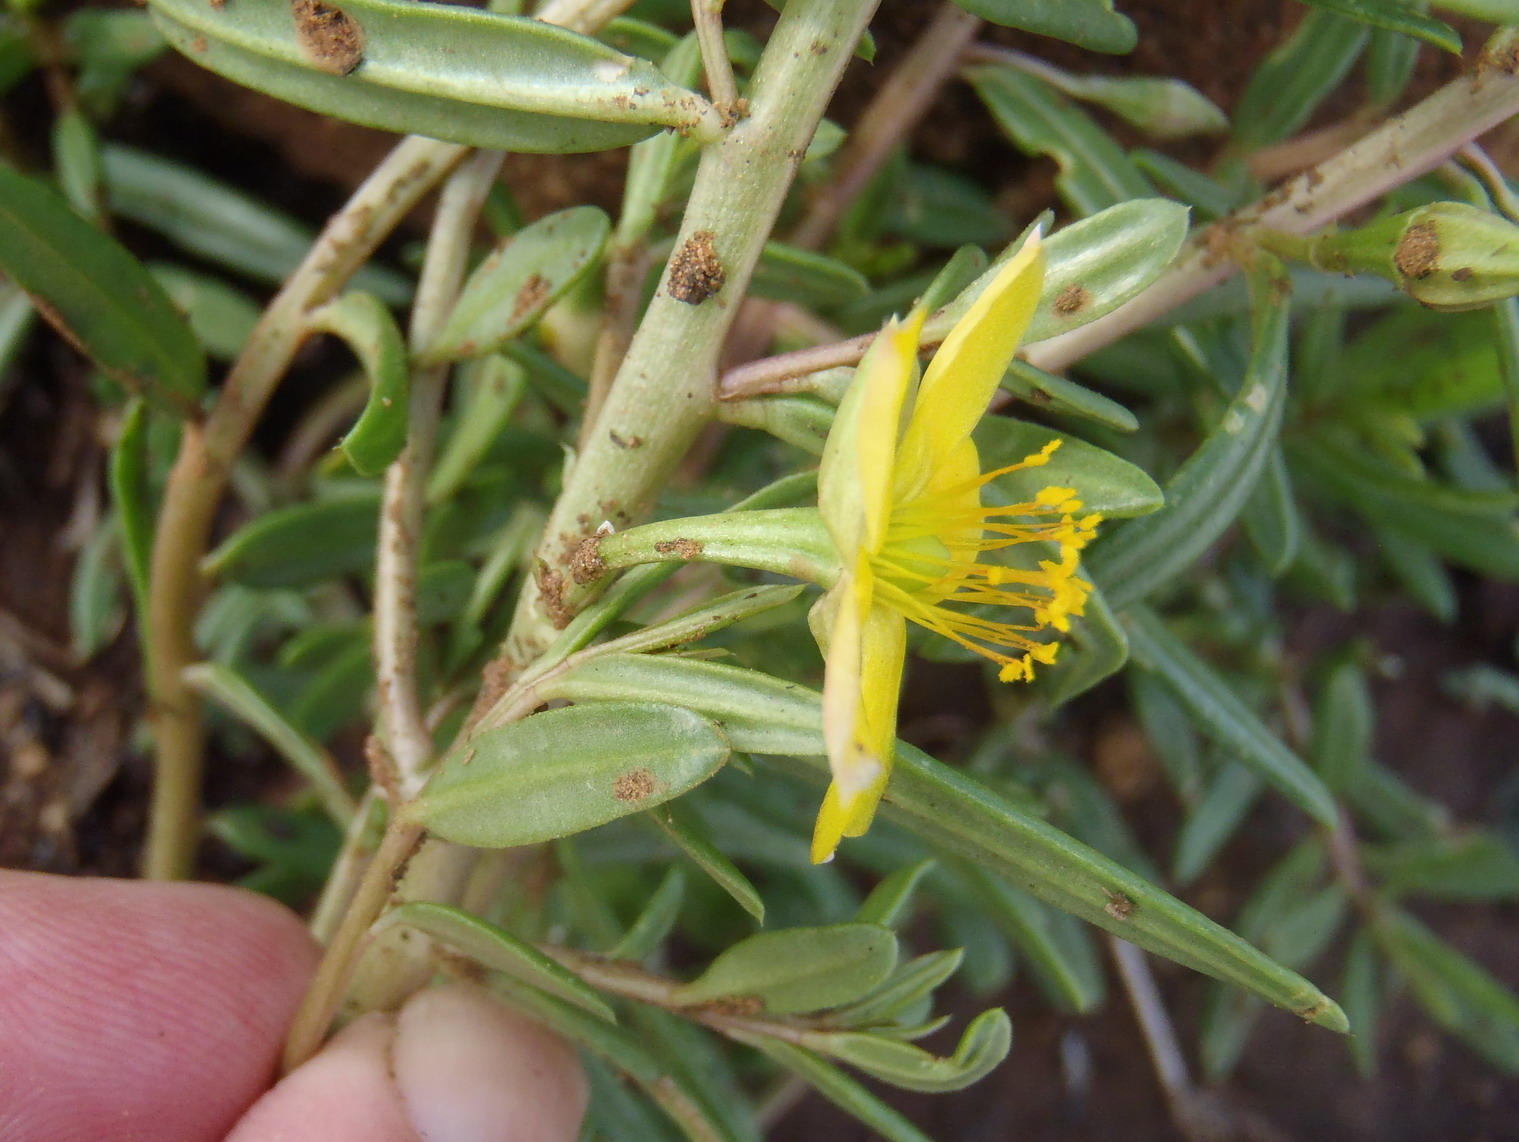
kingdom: Plantae
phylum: Tracheophyta
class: Magnoliopsida
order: Caryophyllales
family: Talinaceae
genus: Talinum
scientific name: Talinum caffrum
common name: Flameflower
